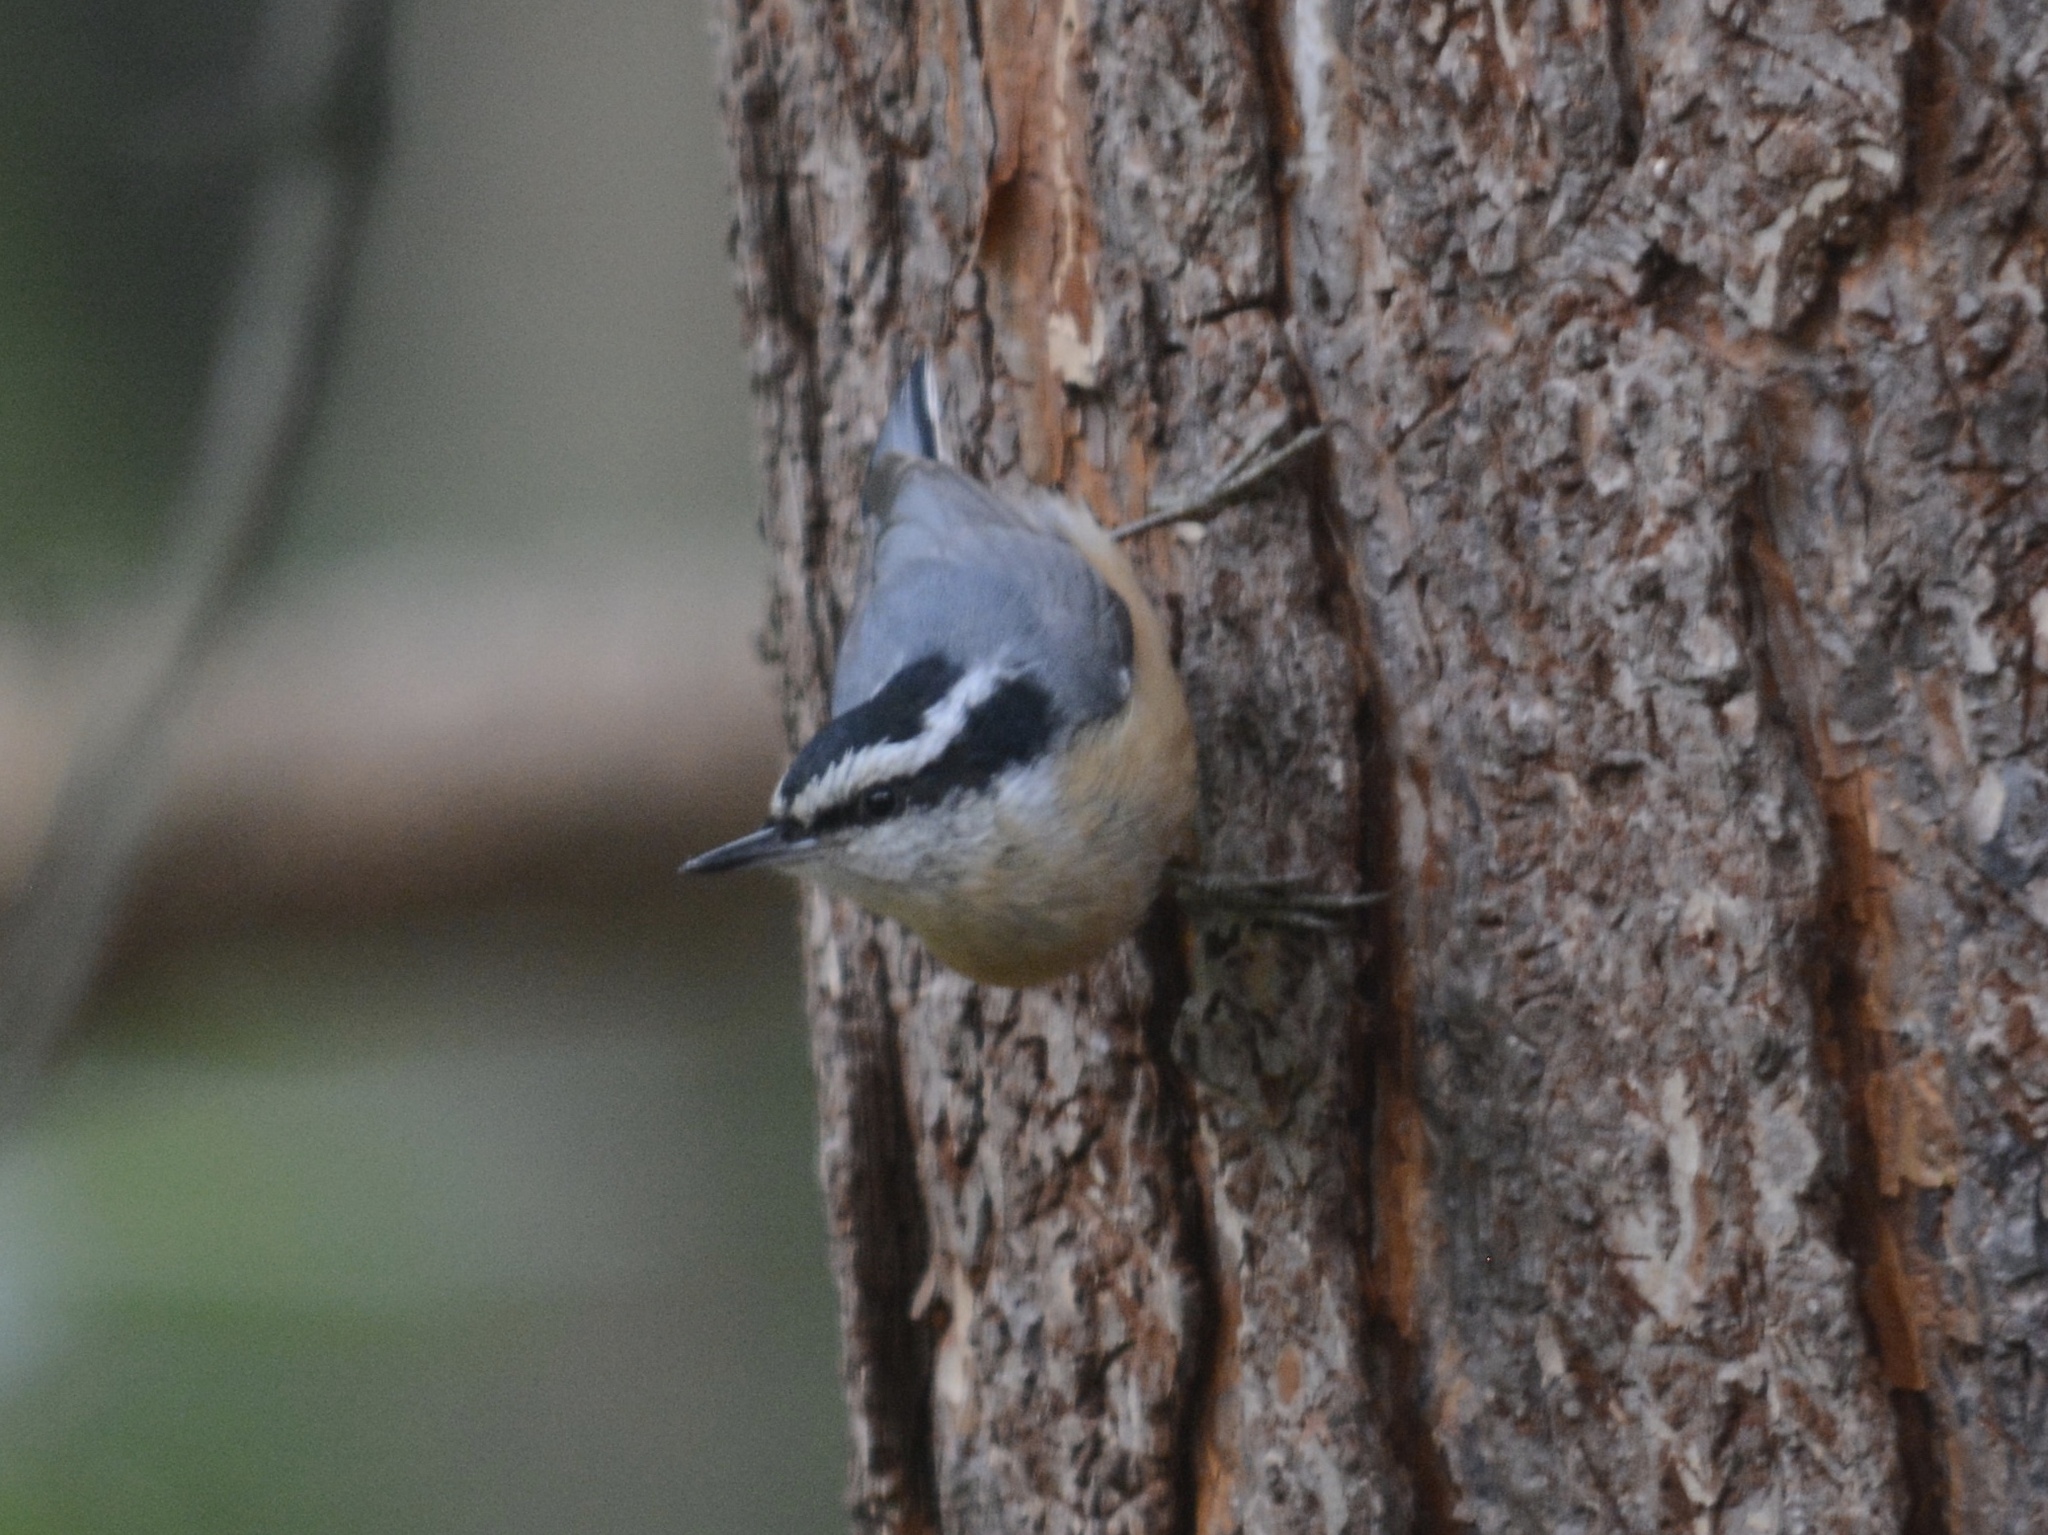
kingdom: Animalia
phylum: Chordata
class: Aves
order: Passeriformes
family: Sittidae
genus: Sitta
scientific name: Sitta canadensis
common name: Red-breasted nuthatch
